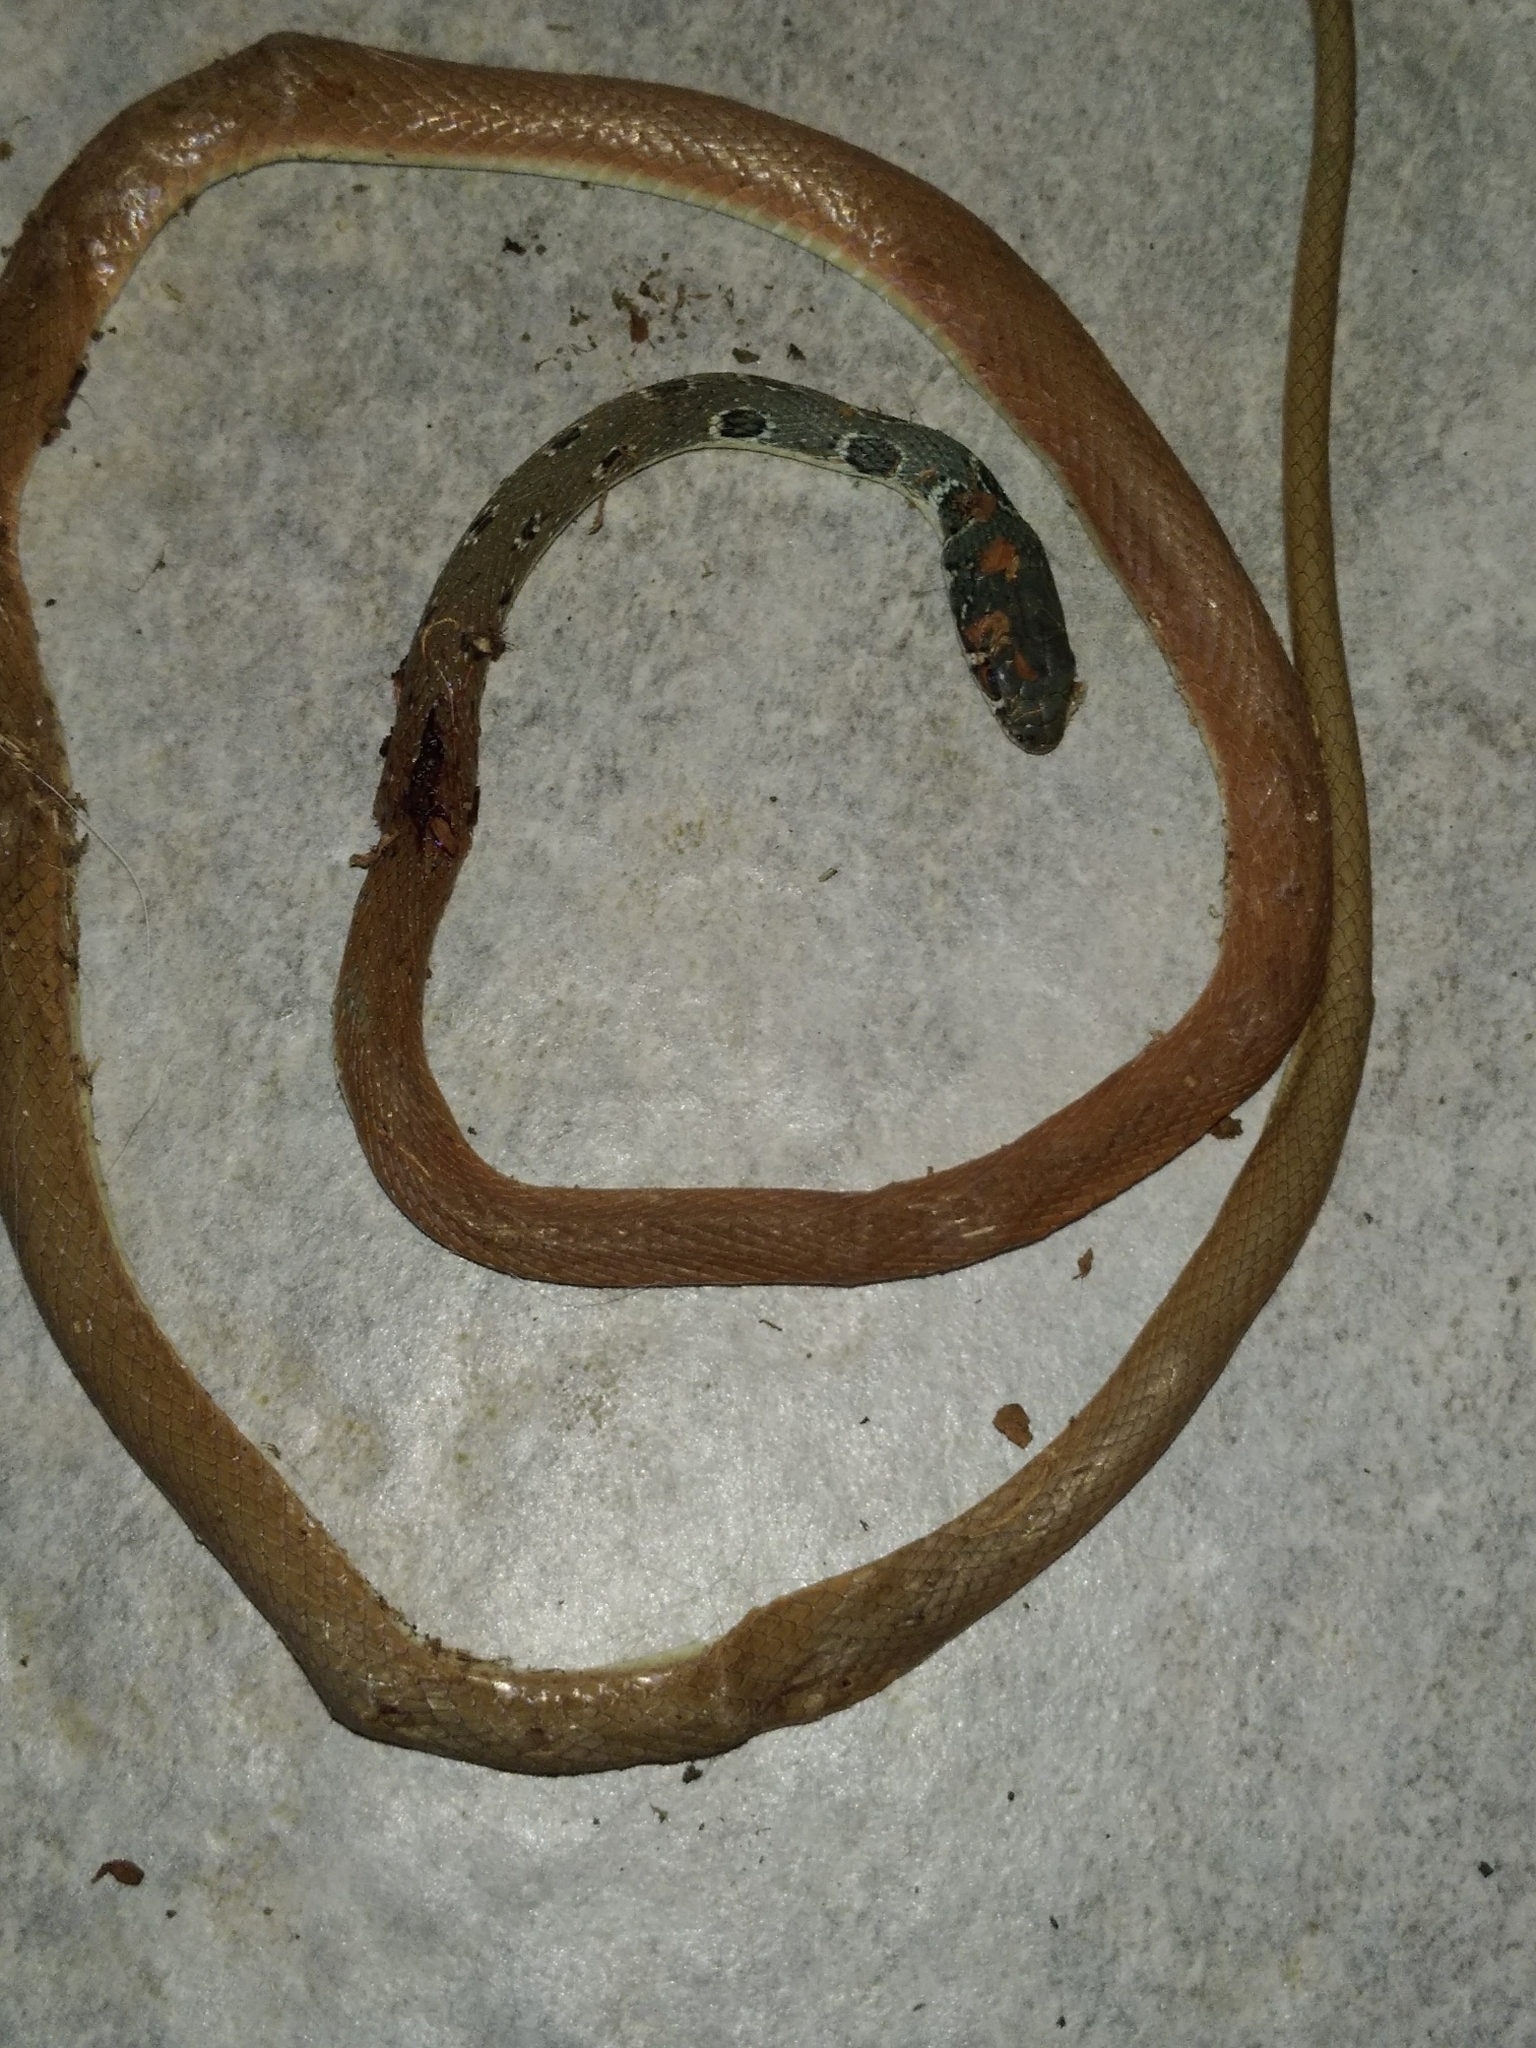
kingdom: Animalia
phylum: Chordata
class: Squamata
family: Colubridae
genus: Platyceps
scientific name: Platyceps najadum
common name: Dahl's whip snake
